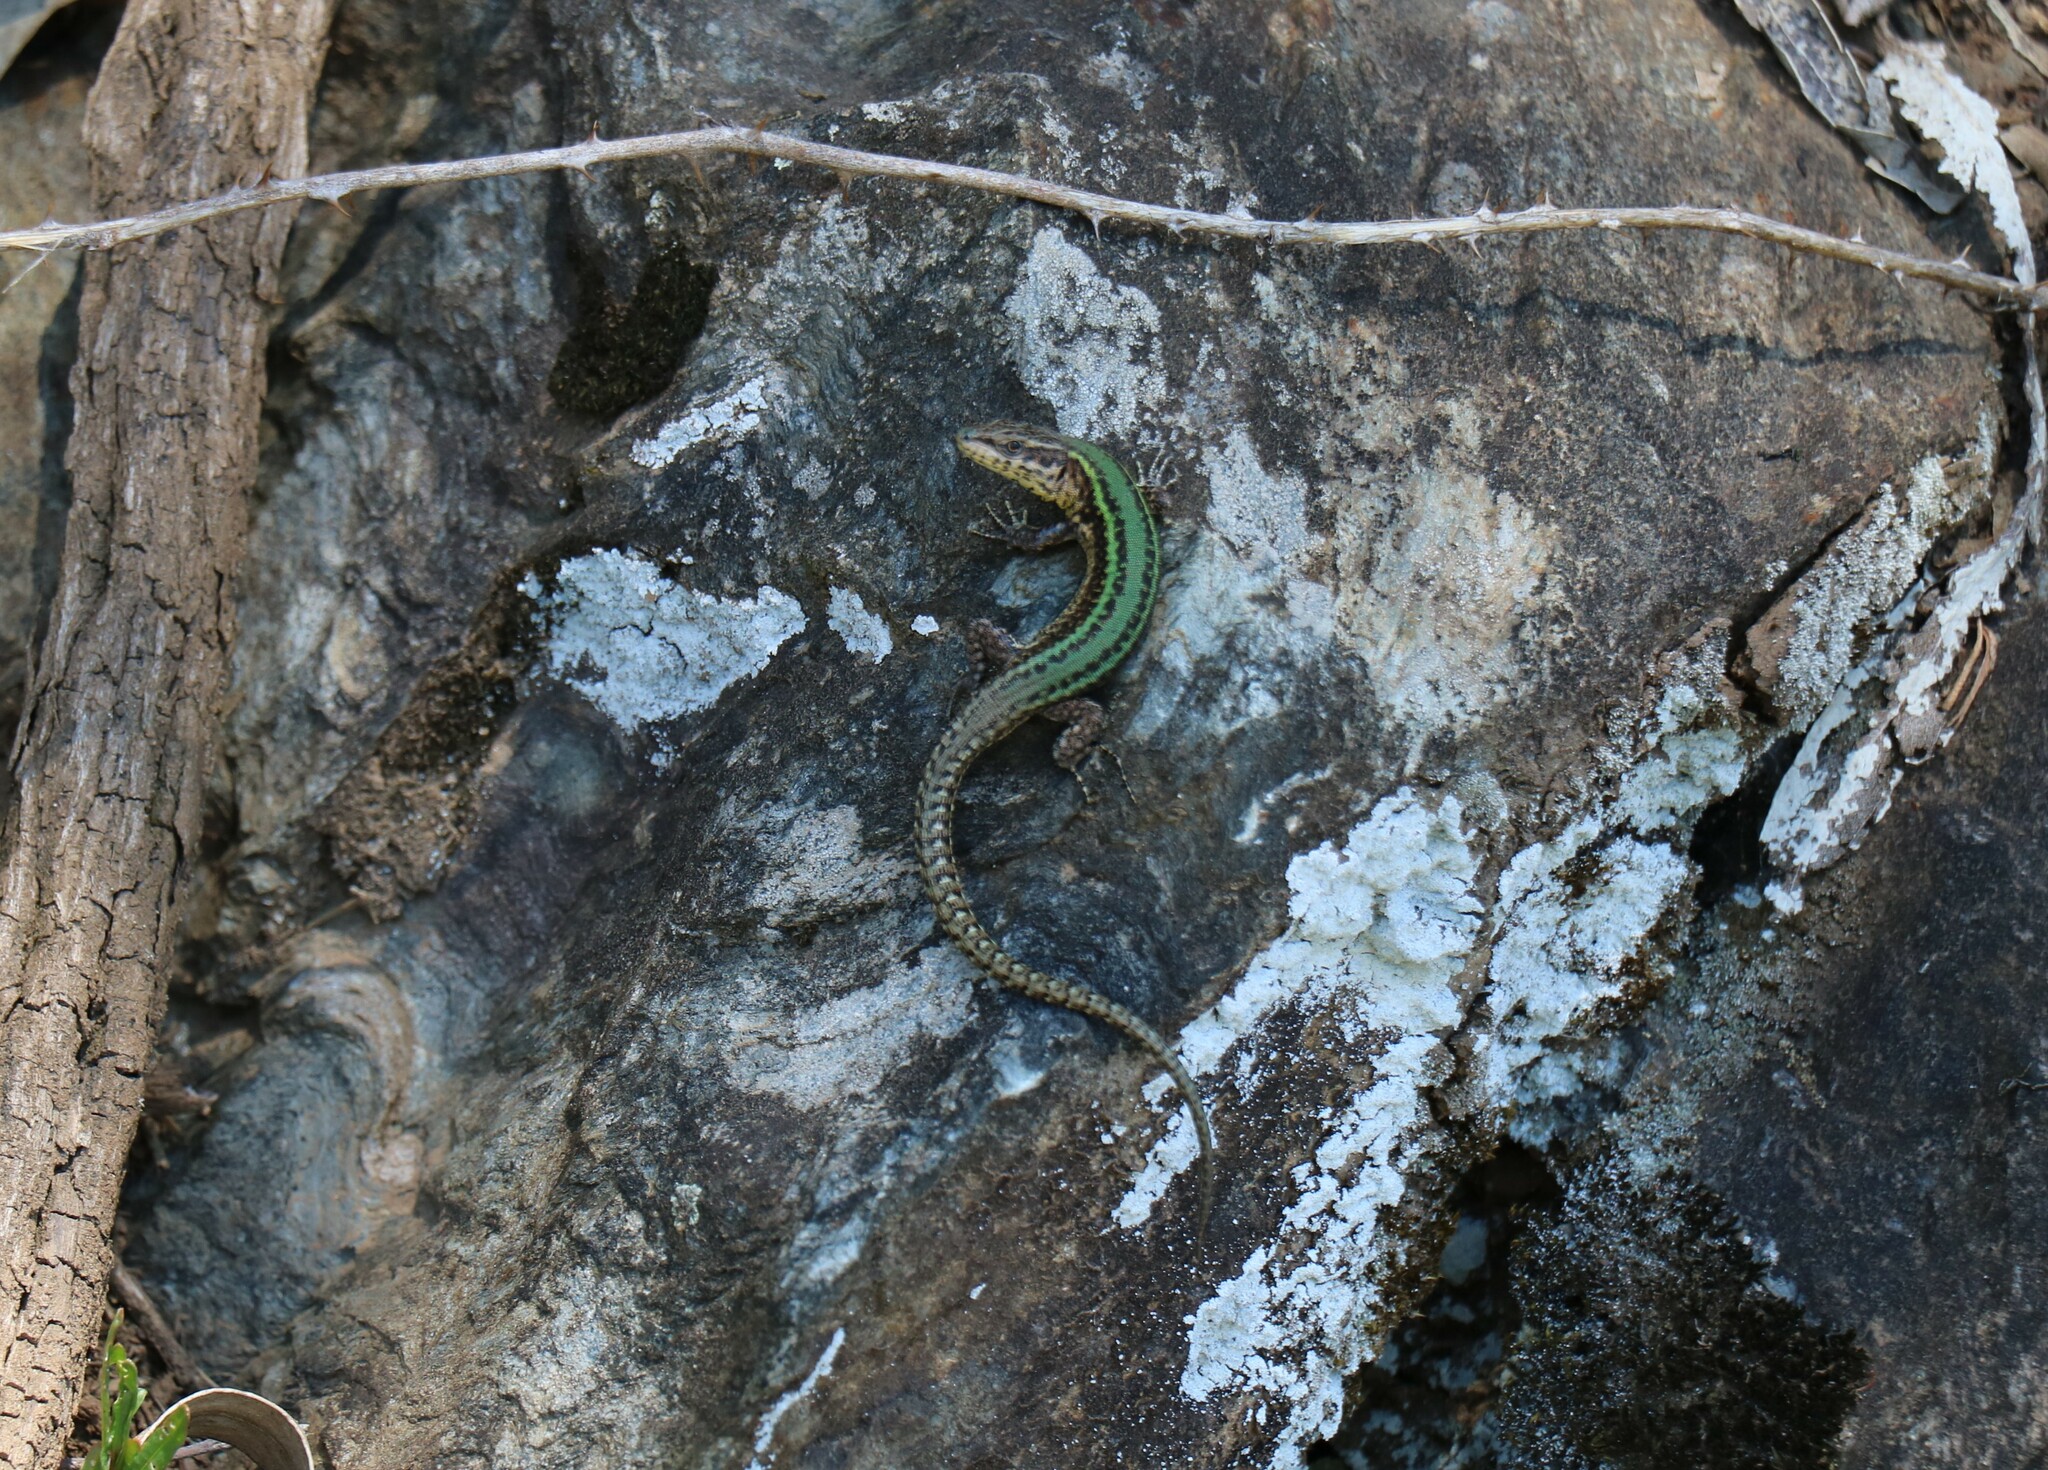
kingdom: Animalia
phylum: Chordata
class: Squamata
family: Lacertidae
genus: Podarcis
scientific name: Podarcis bocagei
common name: Bocage's wall lizard
